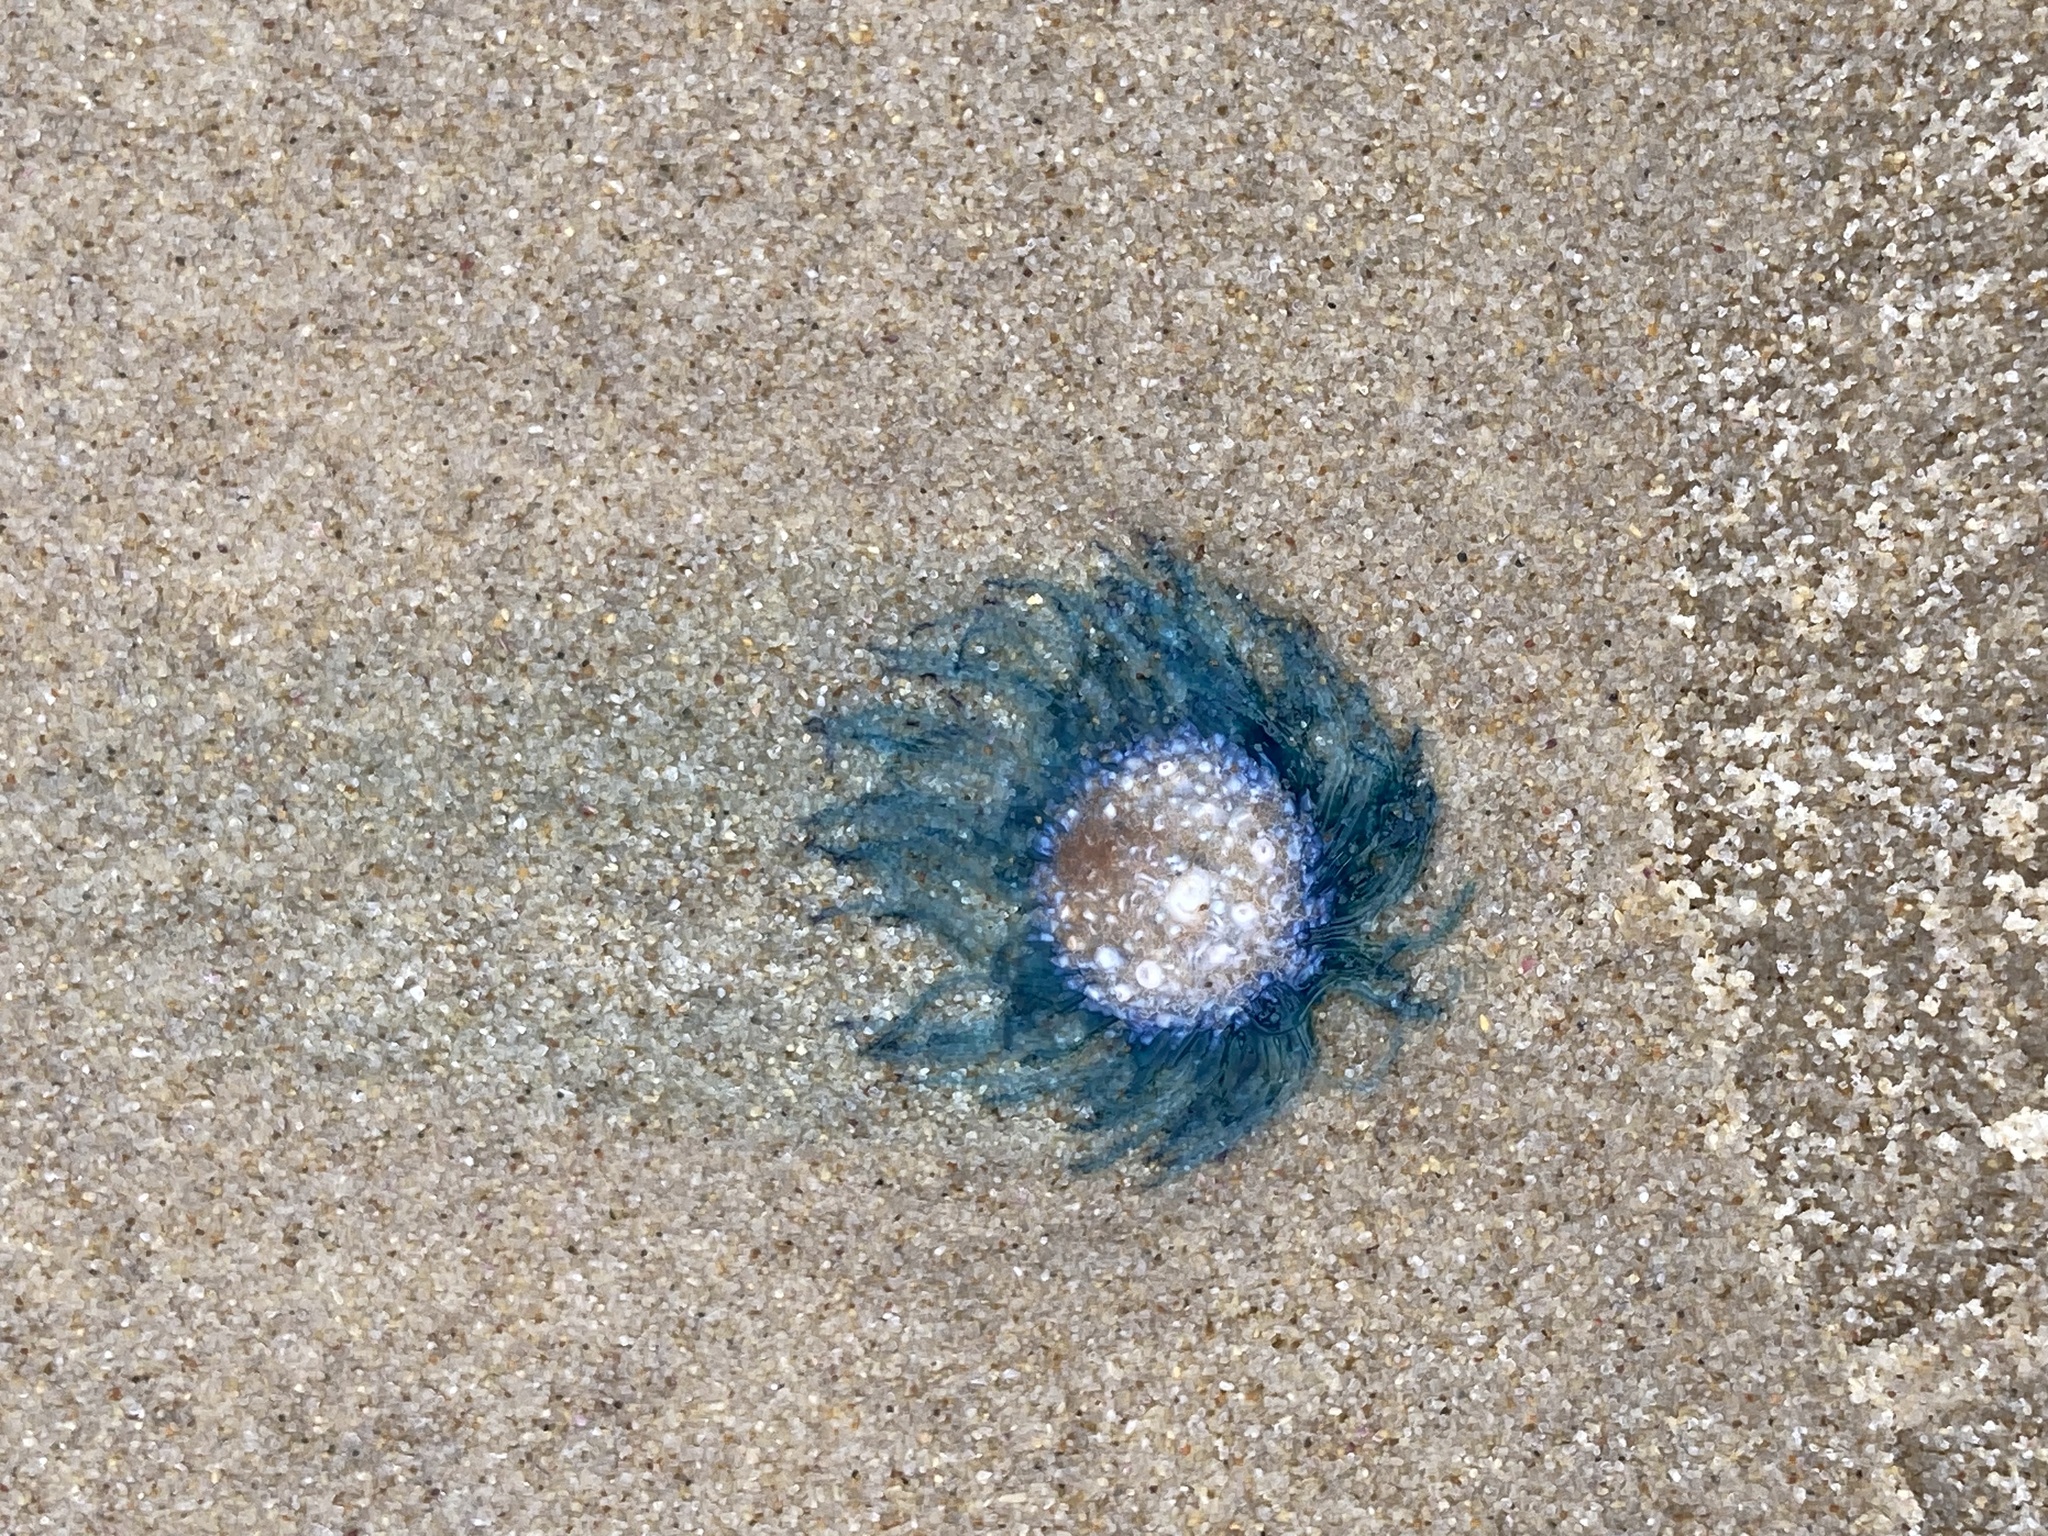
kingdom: Animalia
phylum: Cnidaria
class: Hydrozoa
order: Anthoathecata
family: Porpitidae
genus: Porpita
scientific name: Porpita porpita
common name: Blue button
